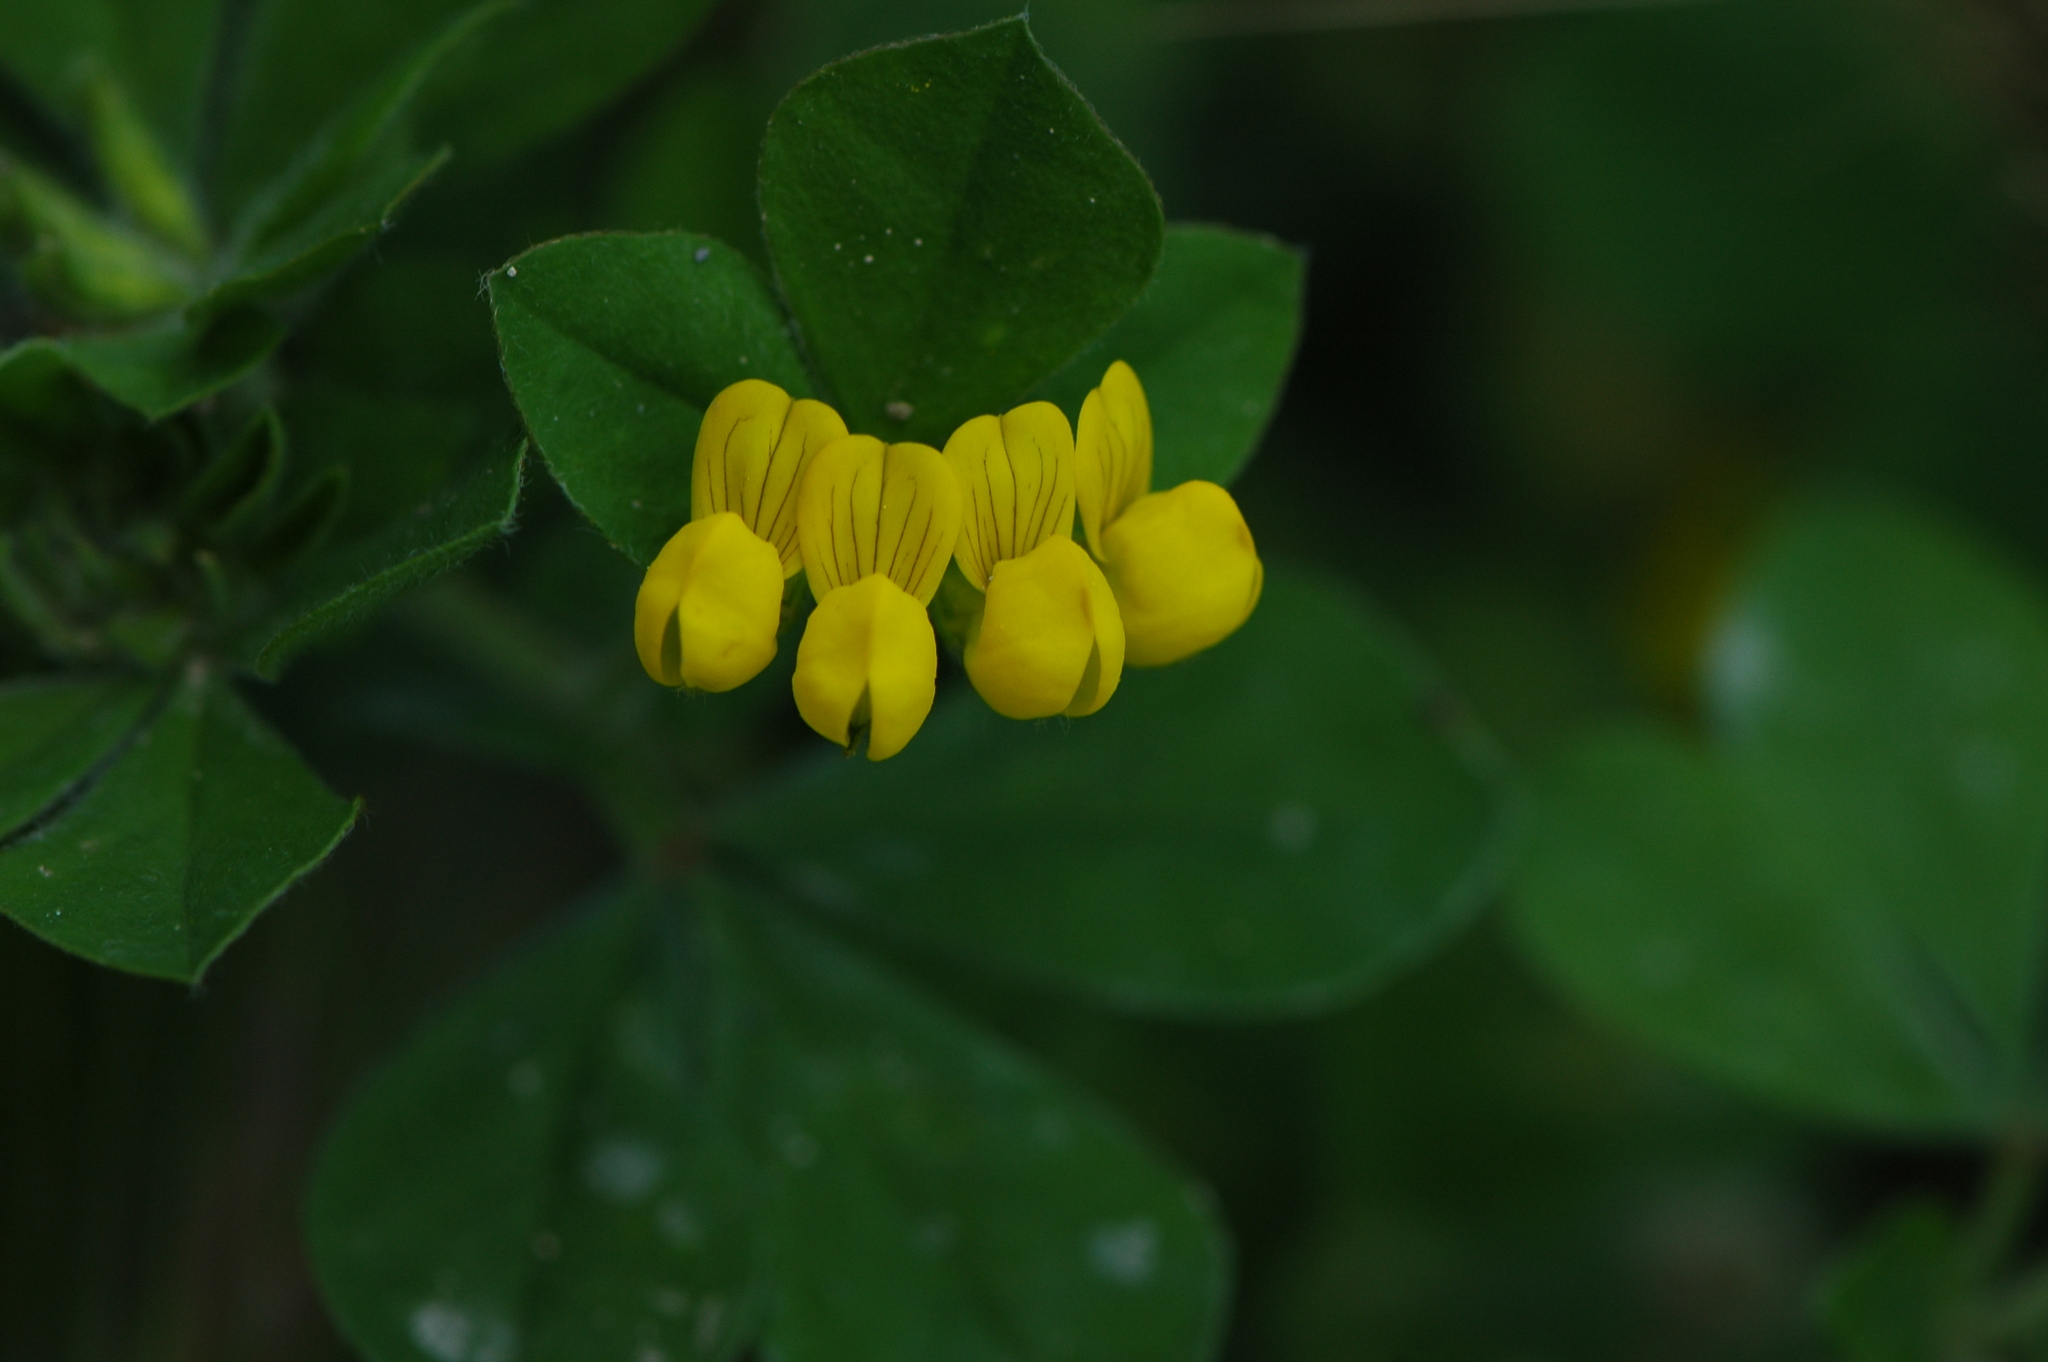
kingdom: Plantae
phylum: Tracheophyta
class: Magnoliopsida
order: Fabales
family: Fabaceae
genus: Lotus
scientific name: Lotus ornithopodioides
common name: Southern bird's-foot trefoil
